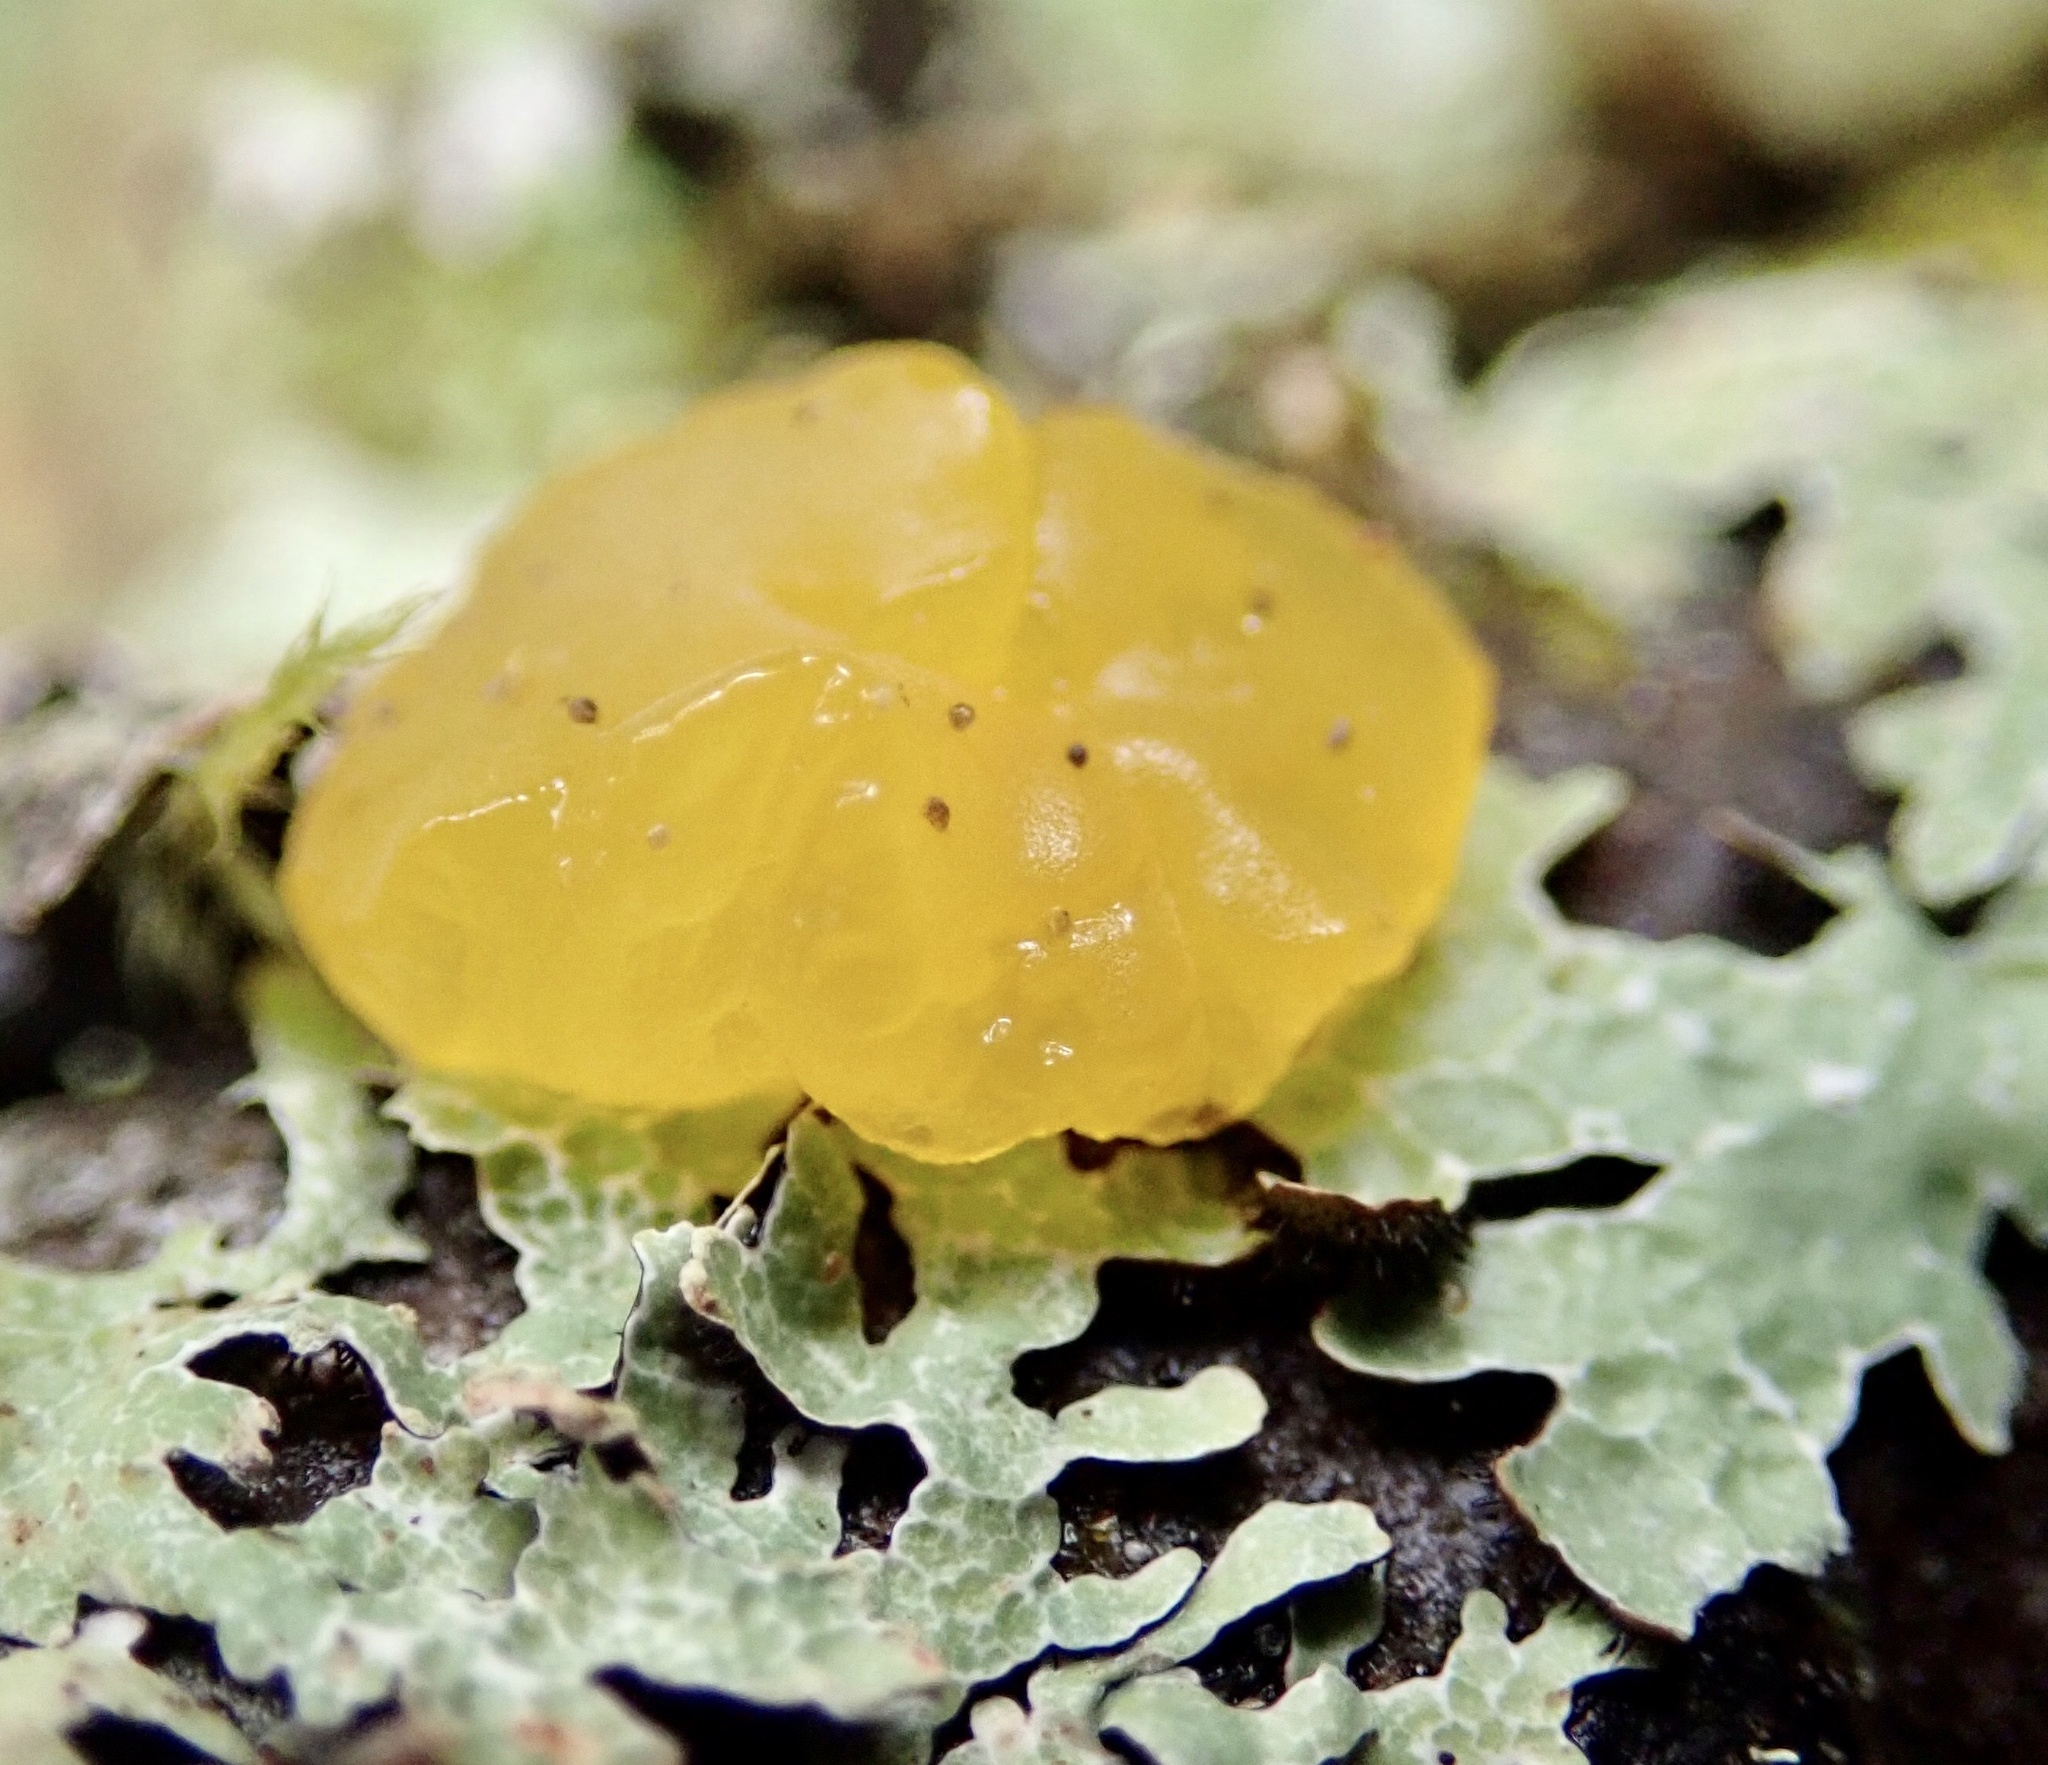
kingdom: Fungi
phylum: Basidiomycota
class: Dacrymycetes
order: Dacrymycetales
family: Dacrymycetaceae
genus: Dacrymyces
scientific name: Dacrymyces chrysospermus
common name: Orange jelly spot
